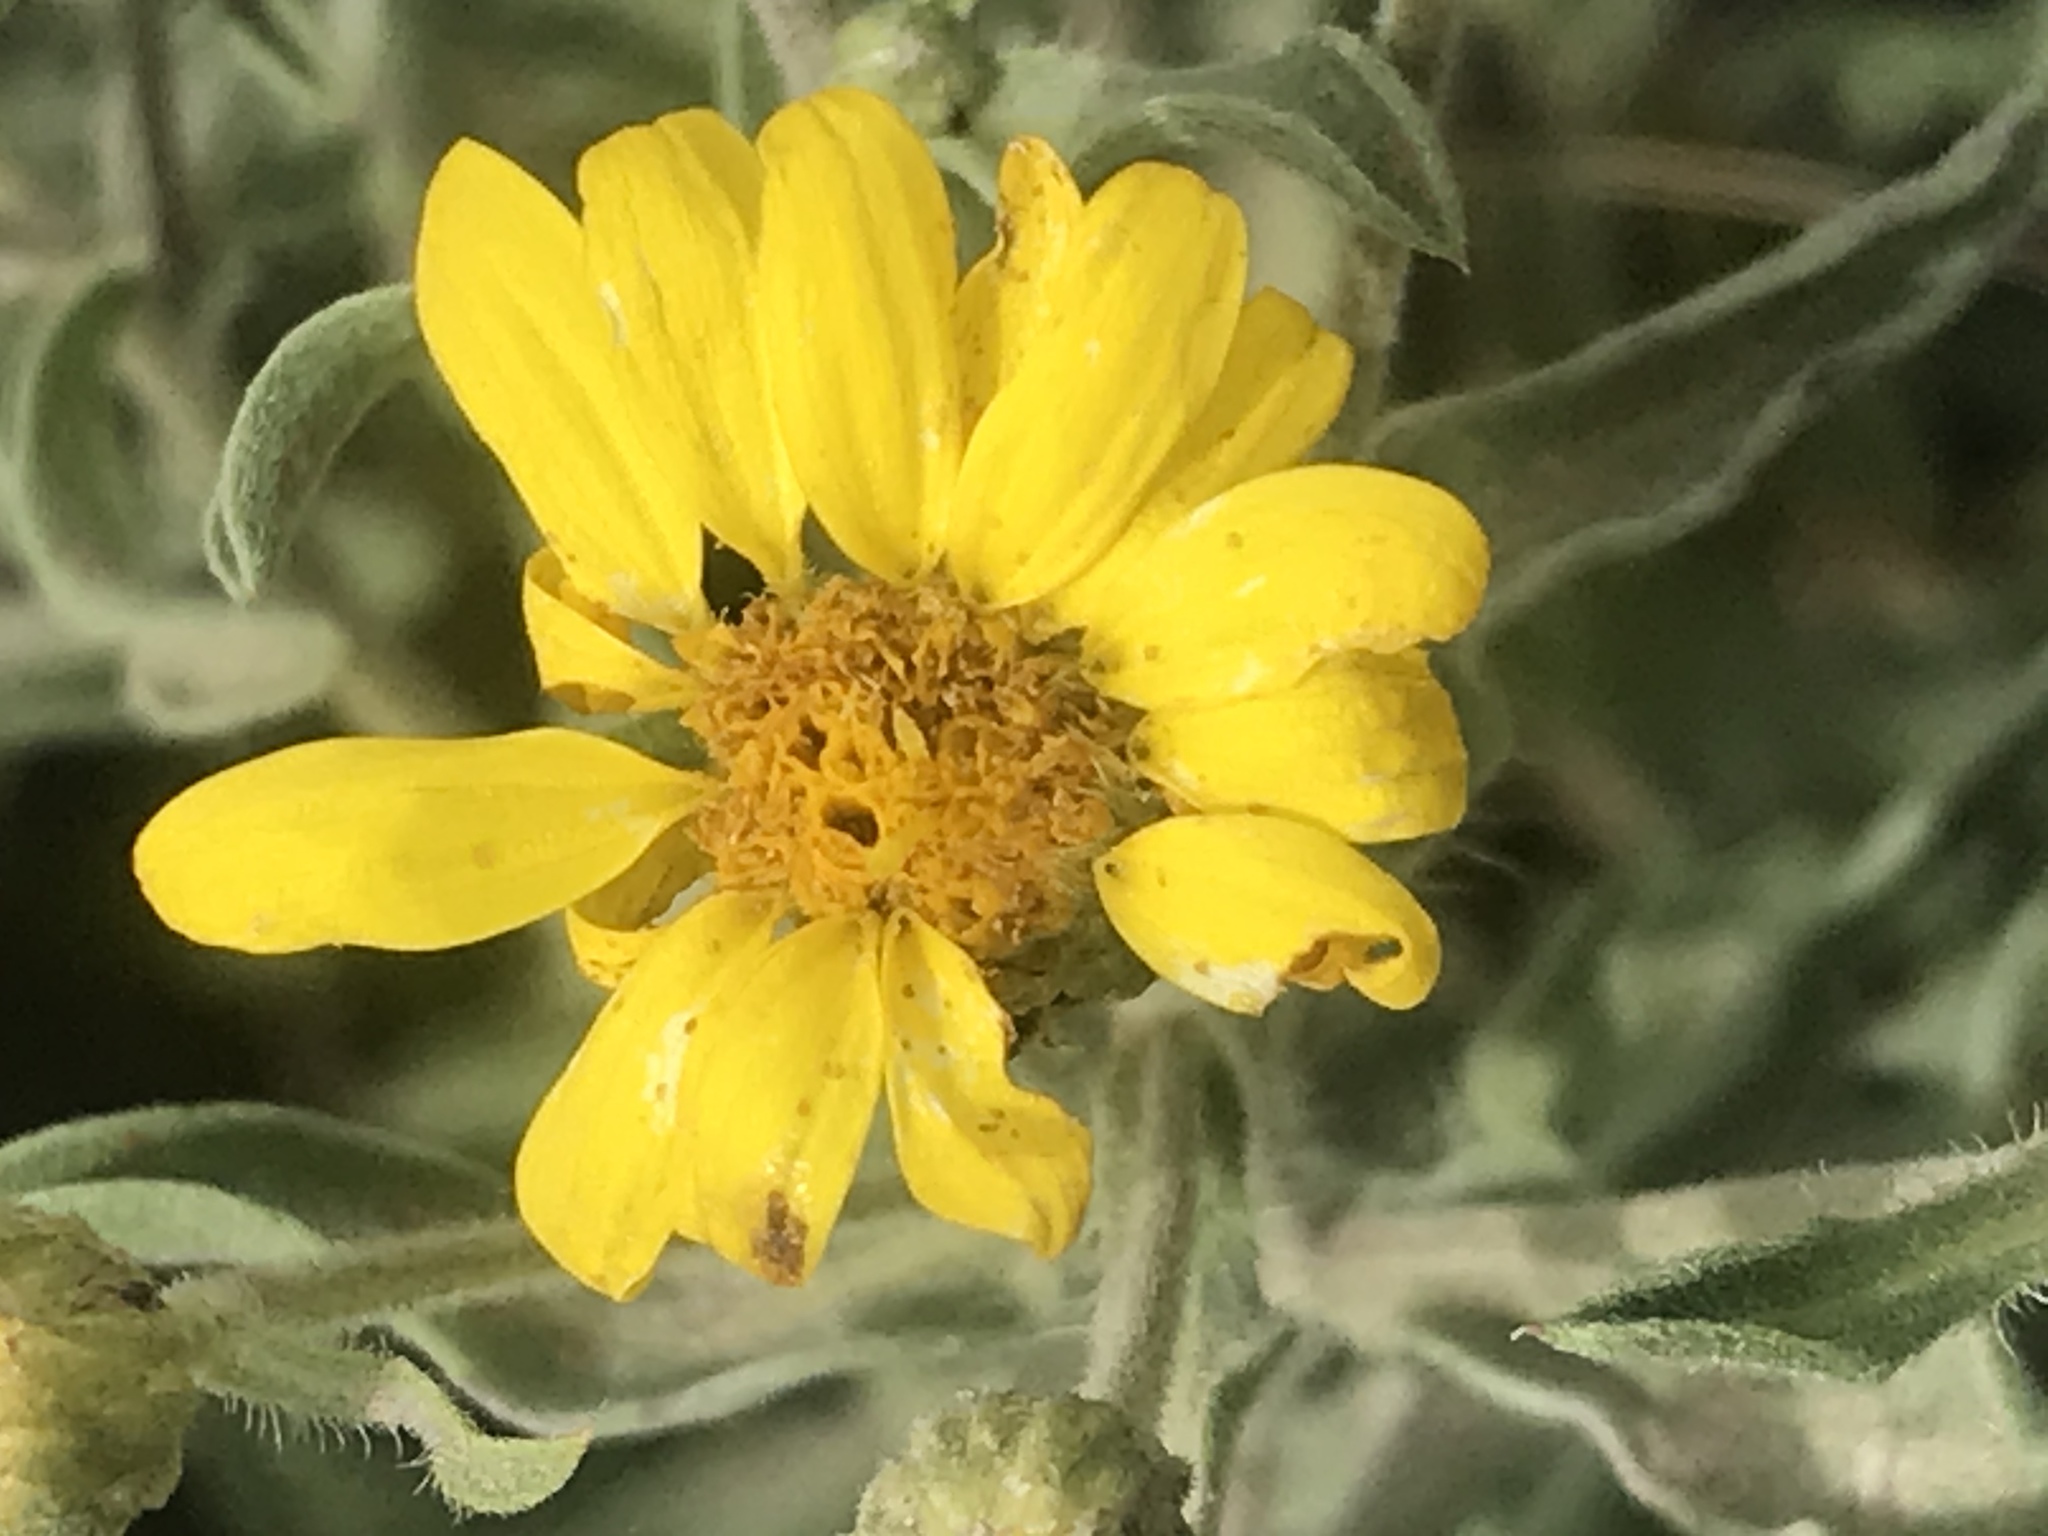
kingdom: Plantae
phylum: Tracheophyta
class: Magnoliopsida
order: Asterales
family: Asteraceae
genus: Heterotheca
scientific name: Heterotheca hartmanii
